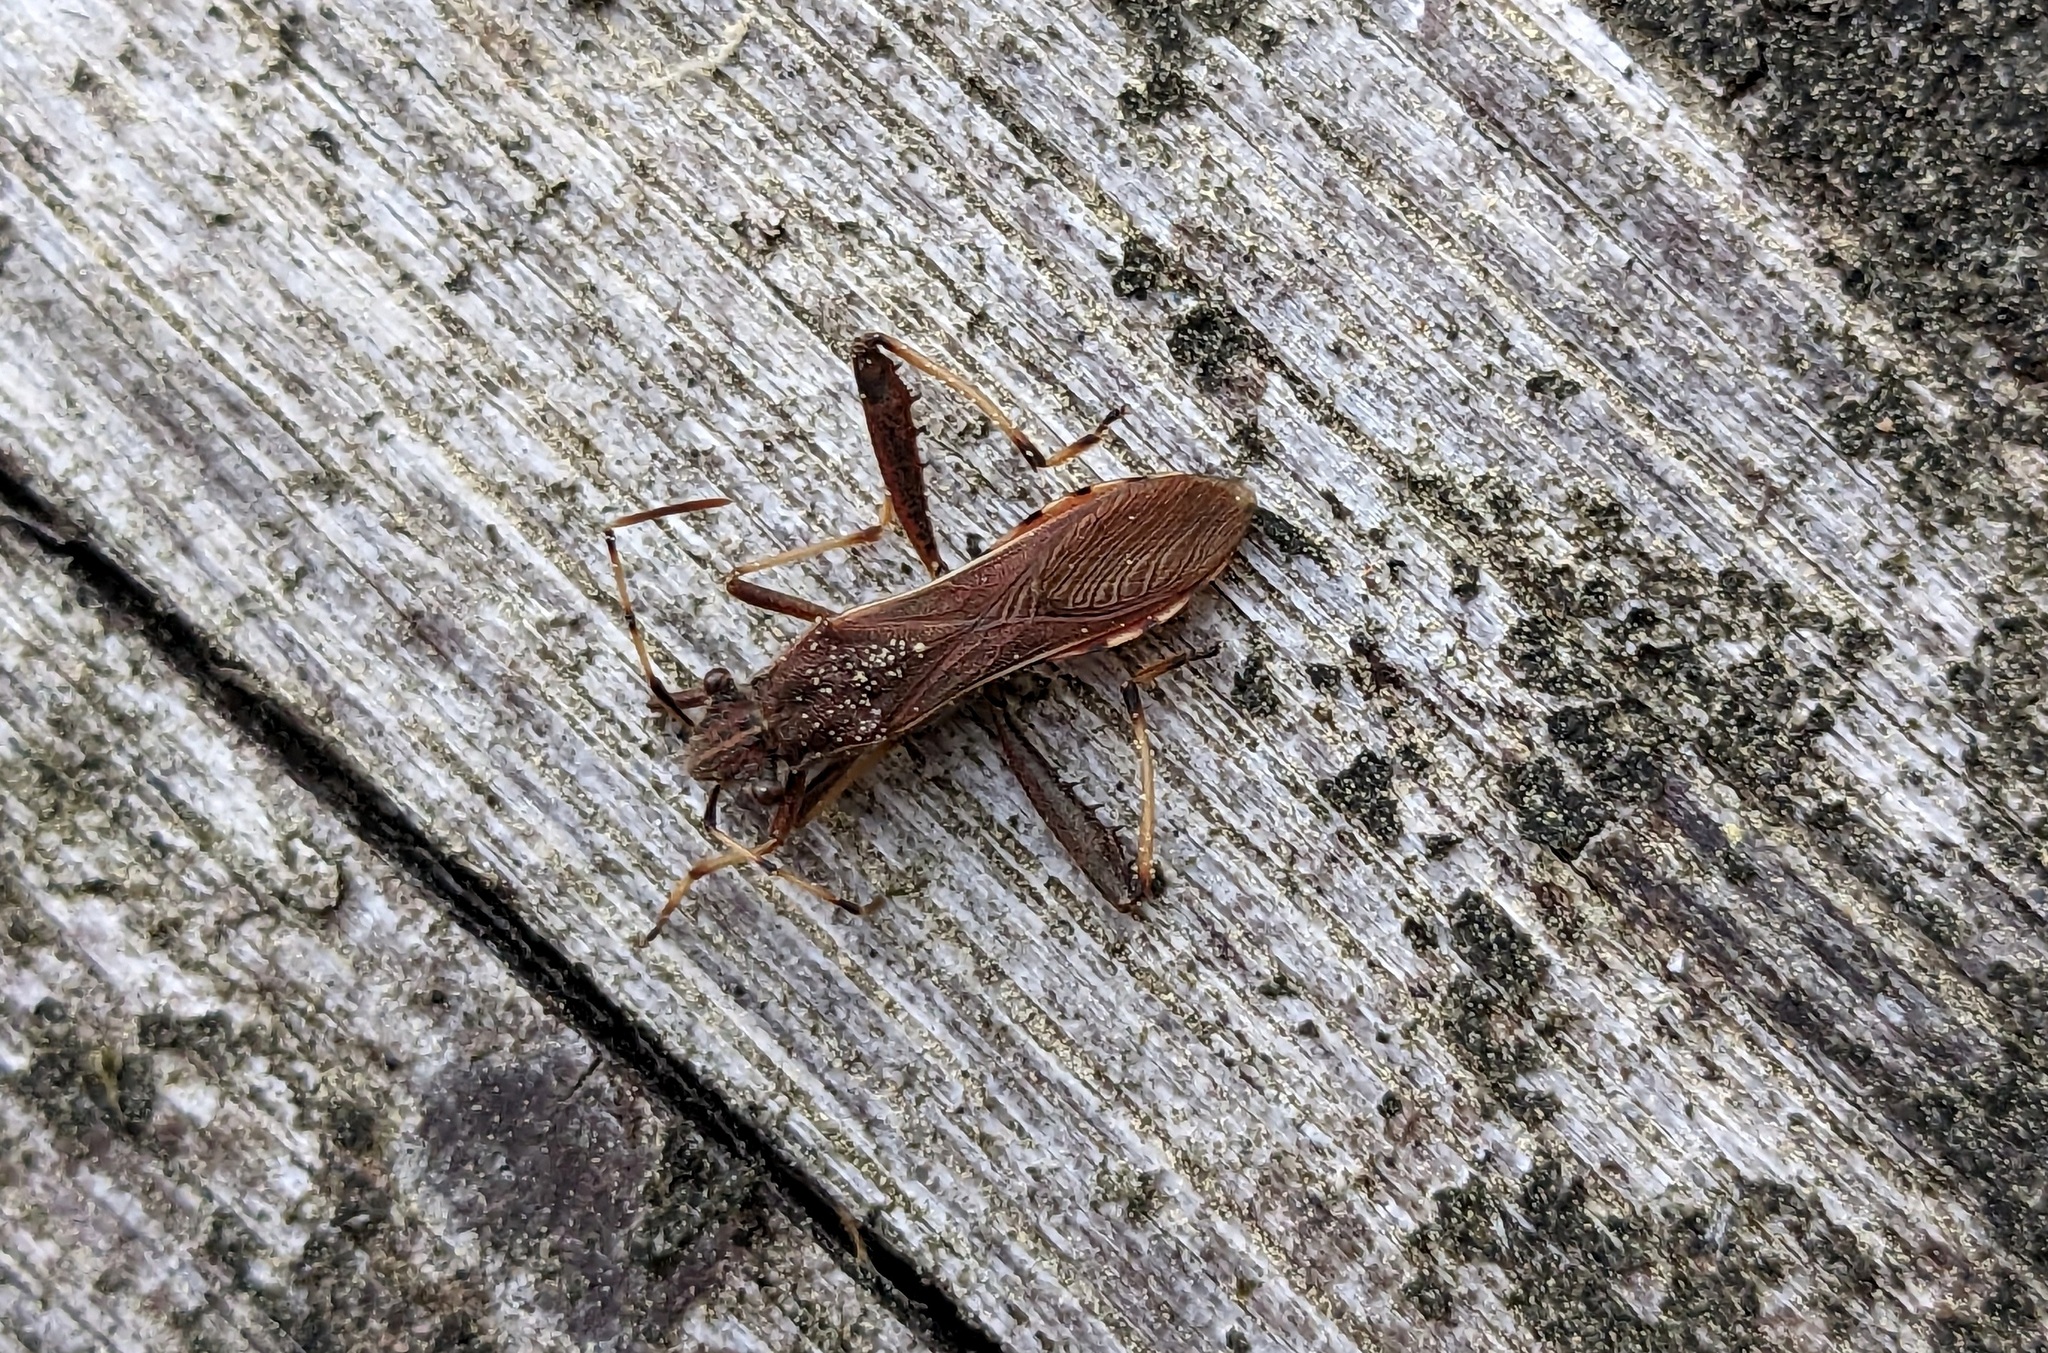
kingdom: Animalia
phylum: Arthropoda
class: Insecta
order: Hemiptera
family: Alydidae
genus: Camptopus
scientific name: Camptopus lateralis
